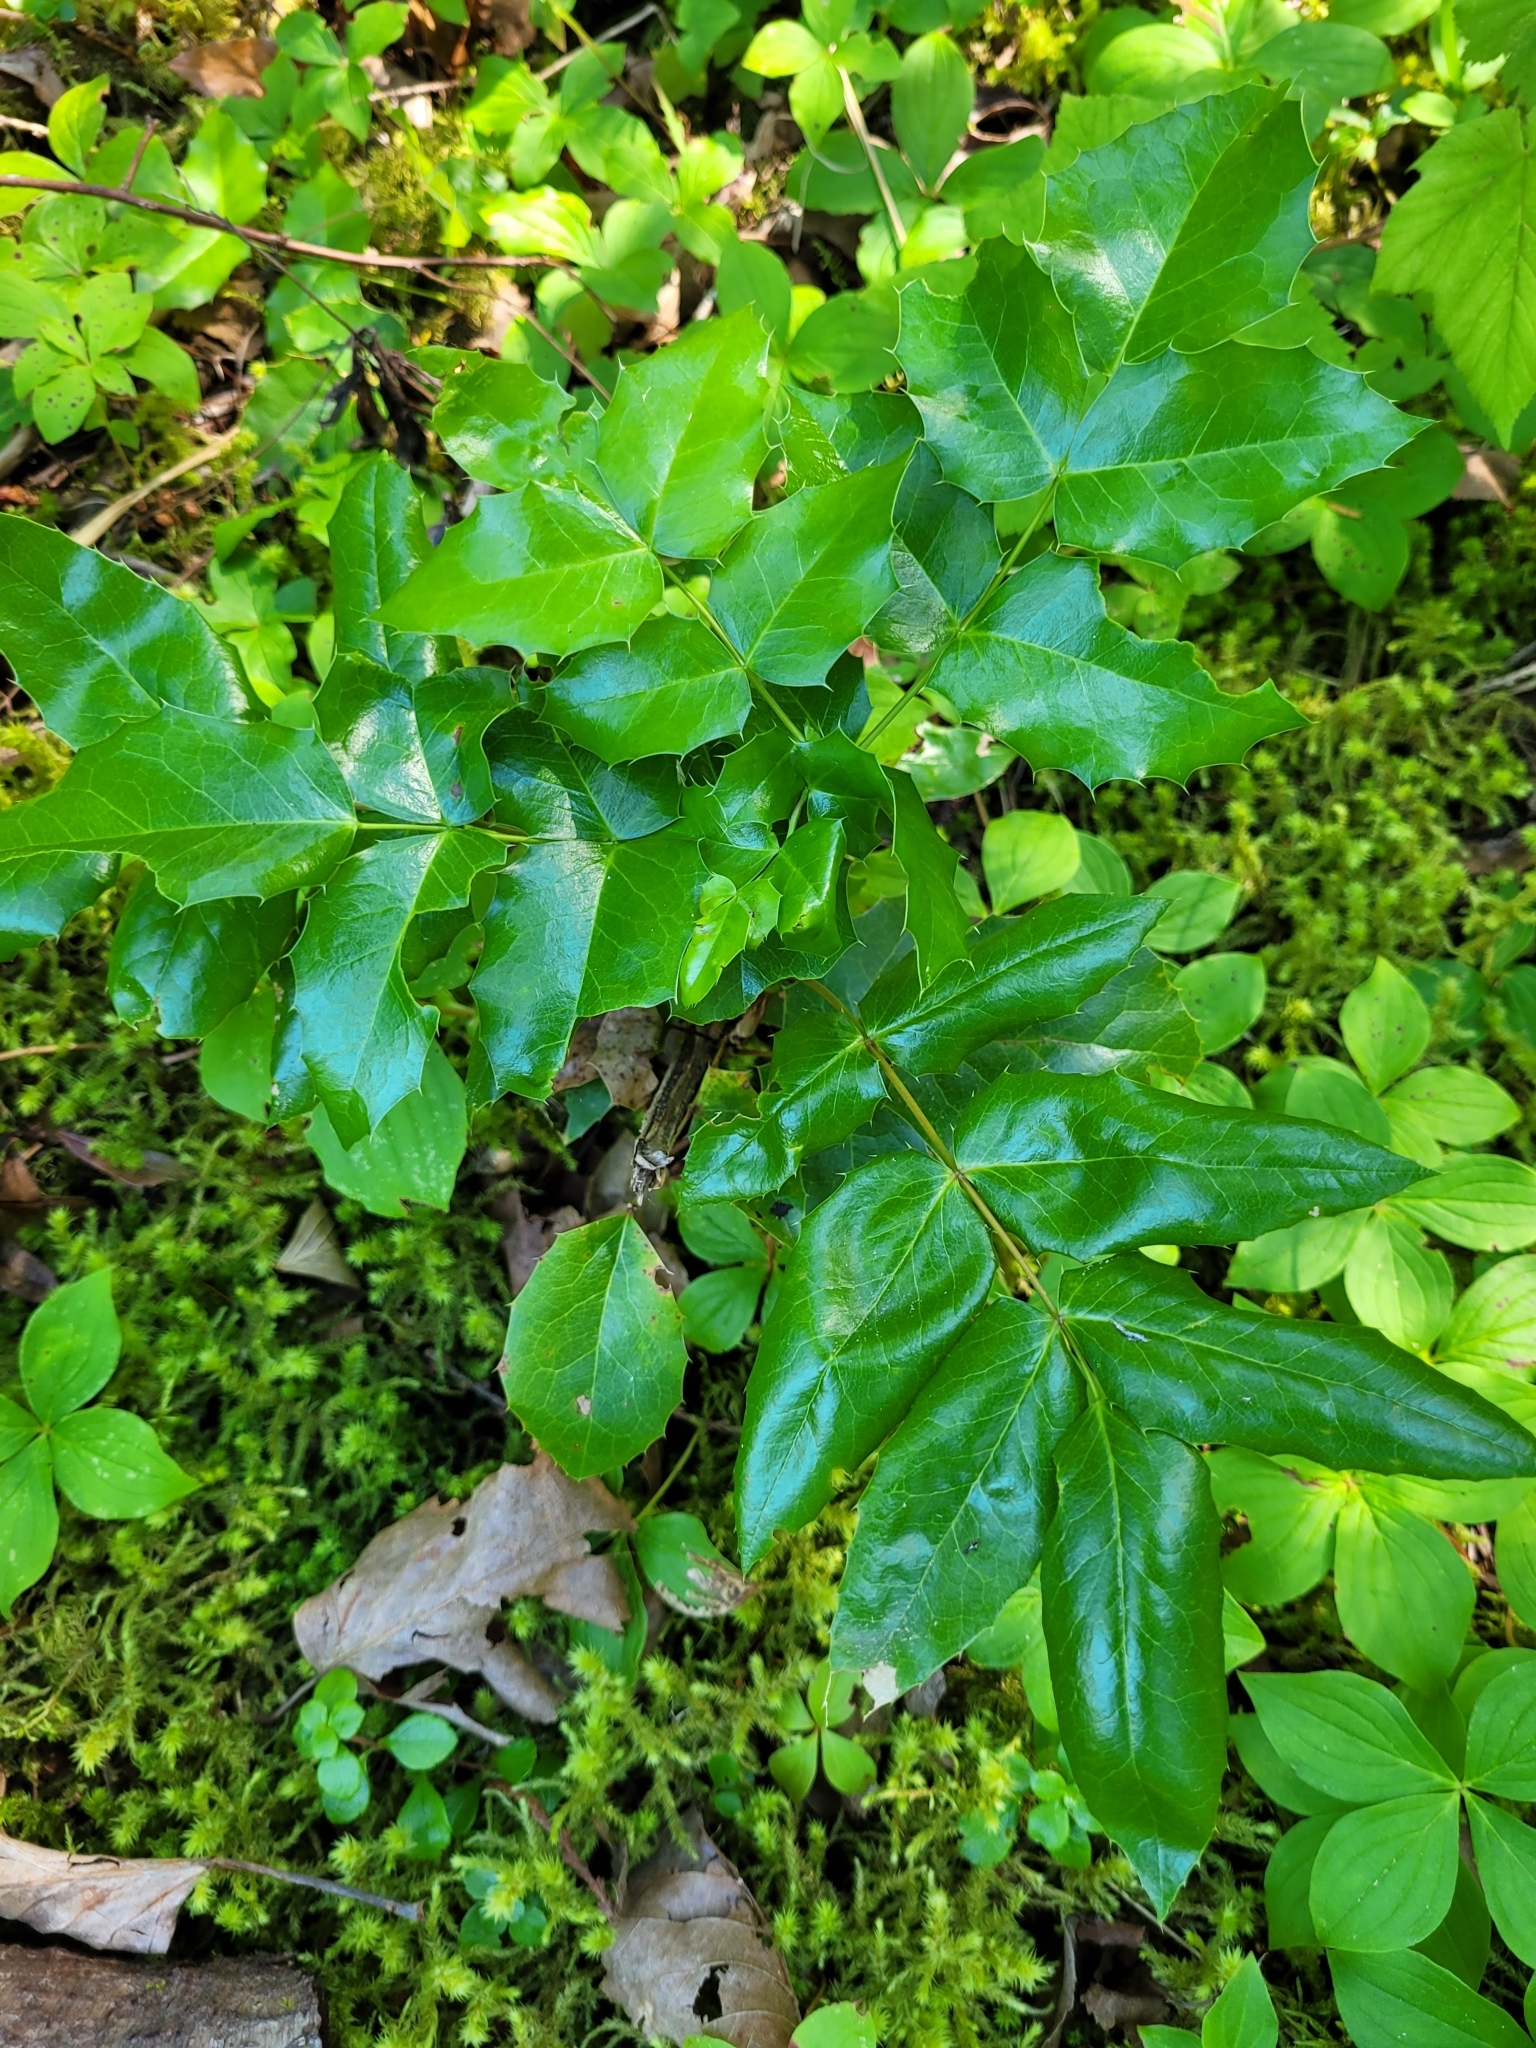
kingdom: Plantae
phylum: Tracheophyta
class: Magnoliopsida
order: Ranunculales
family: Berberidaceae
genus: Mahonia
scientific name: Mahonia aquifolium
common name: Oregon-grape
